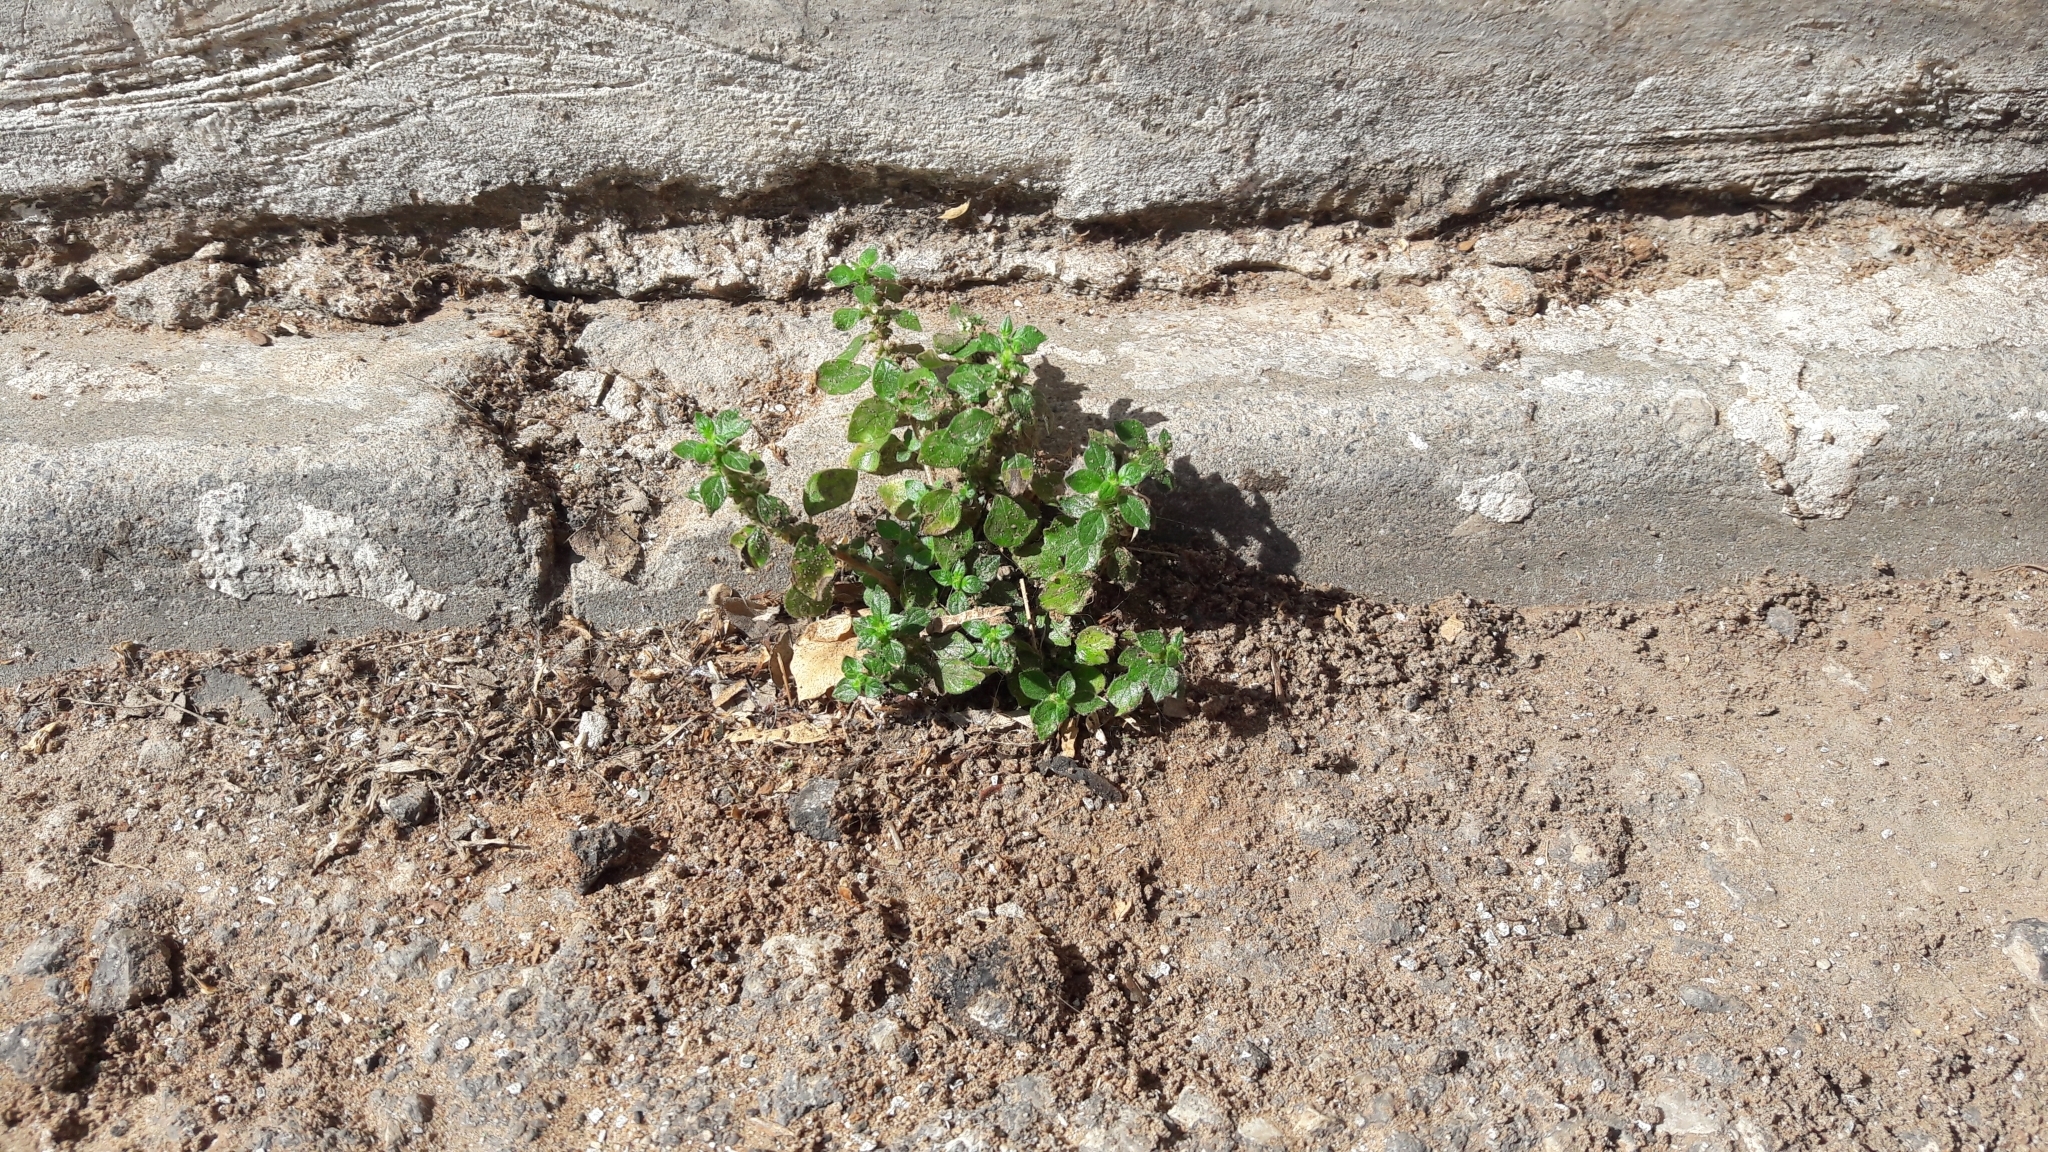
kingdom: Plantae
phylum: Tracheophyta
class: Magnoliopsida
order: Rosales
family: Urticaceae
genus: Parietaria
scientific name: Parietaria judaica
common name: Pellitory-of-the-wall
